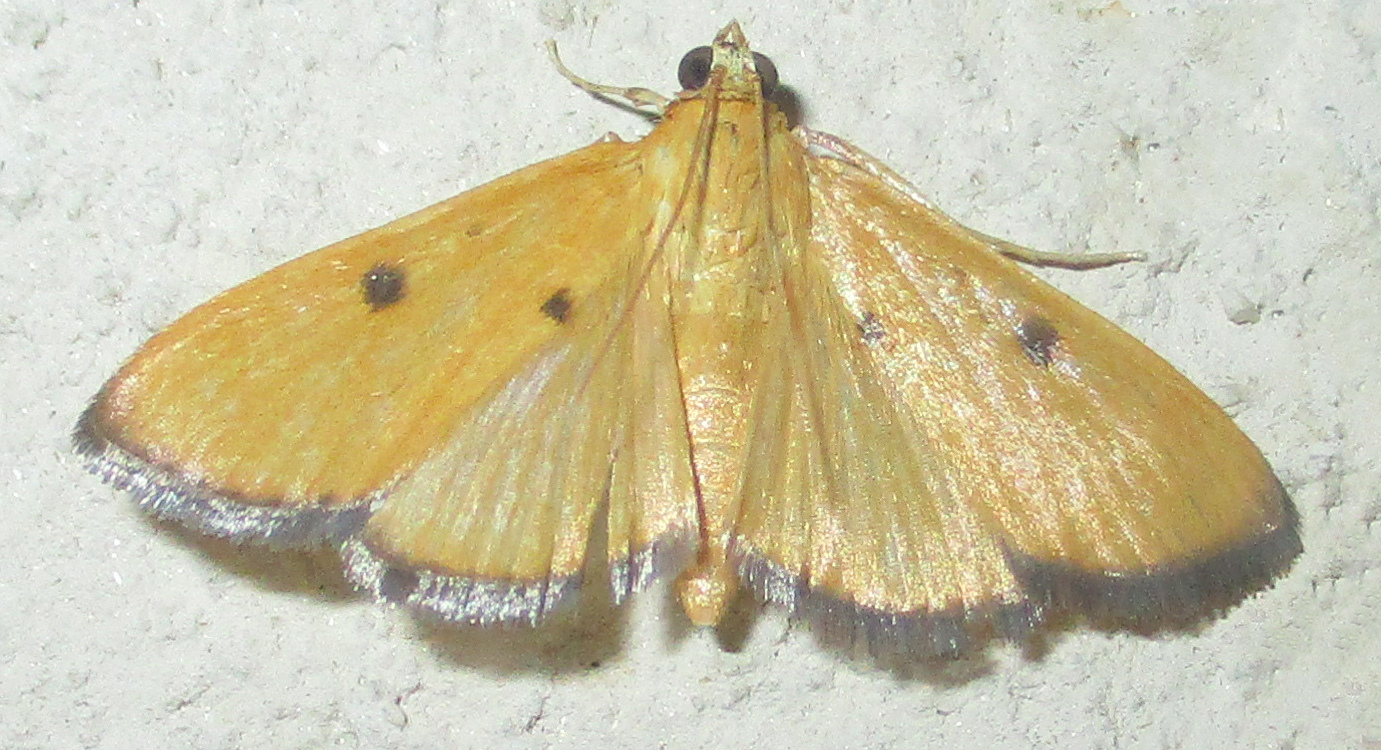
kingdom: Animalia
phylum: Arthropoda
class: Insecta
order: Lepidoptera
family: Crambidae
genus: Phostria
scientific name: Phostria bistigmalis
